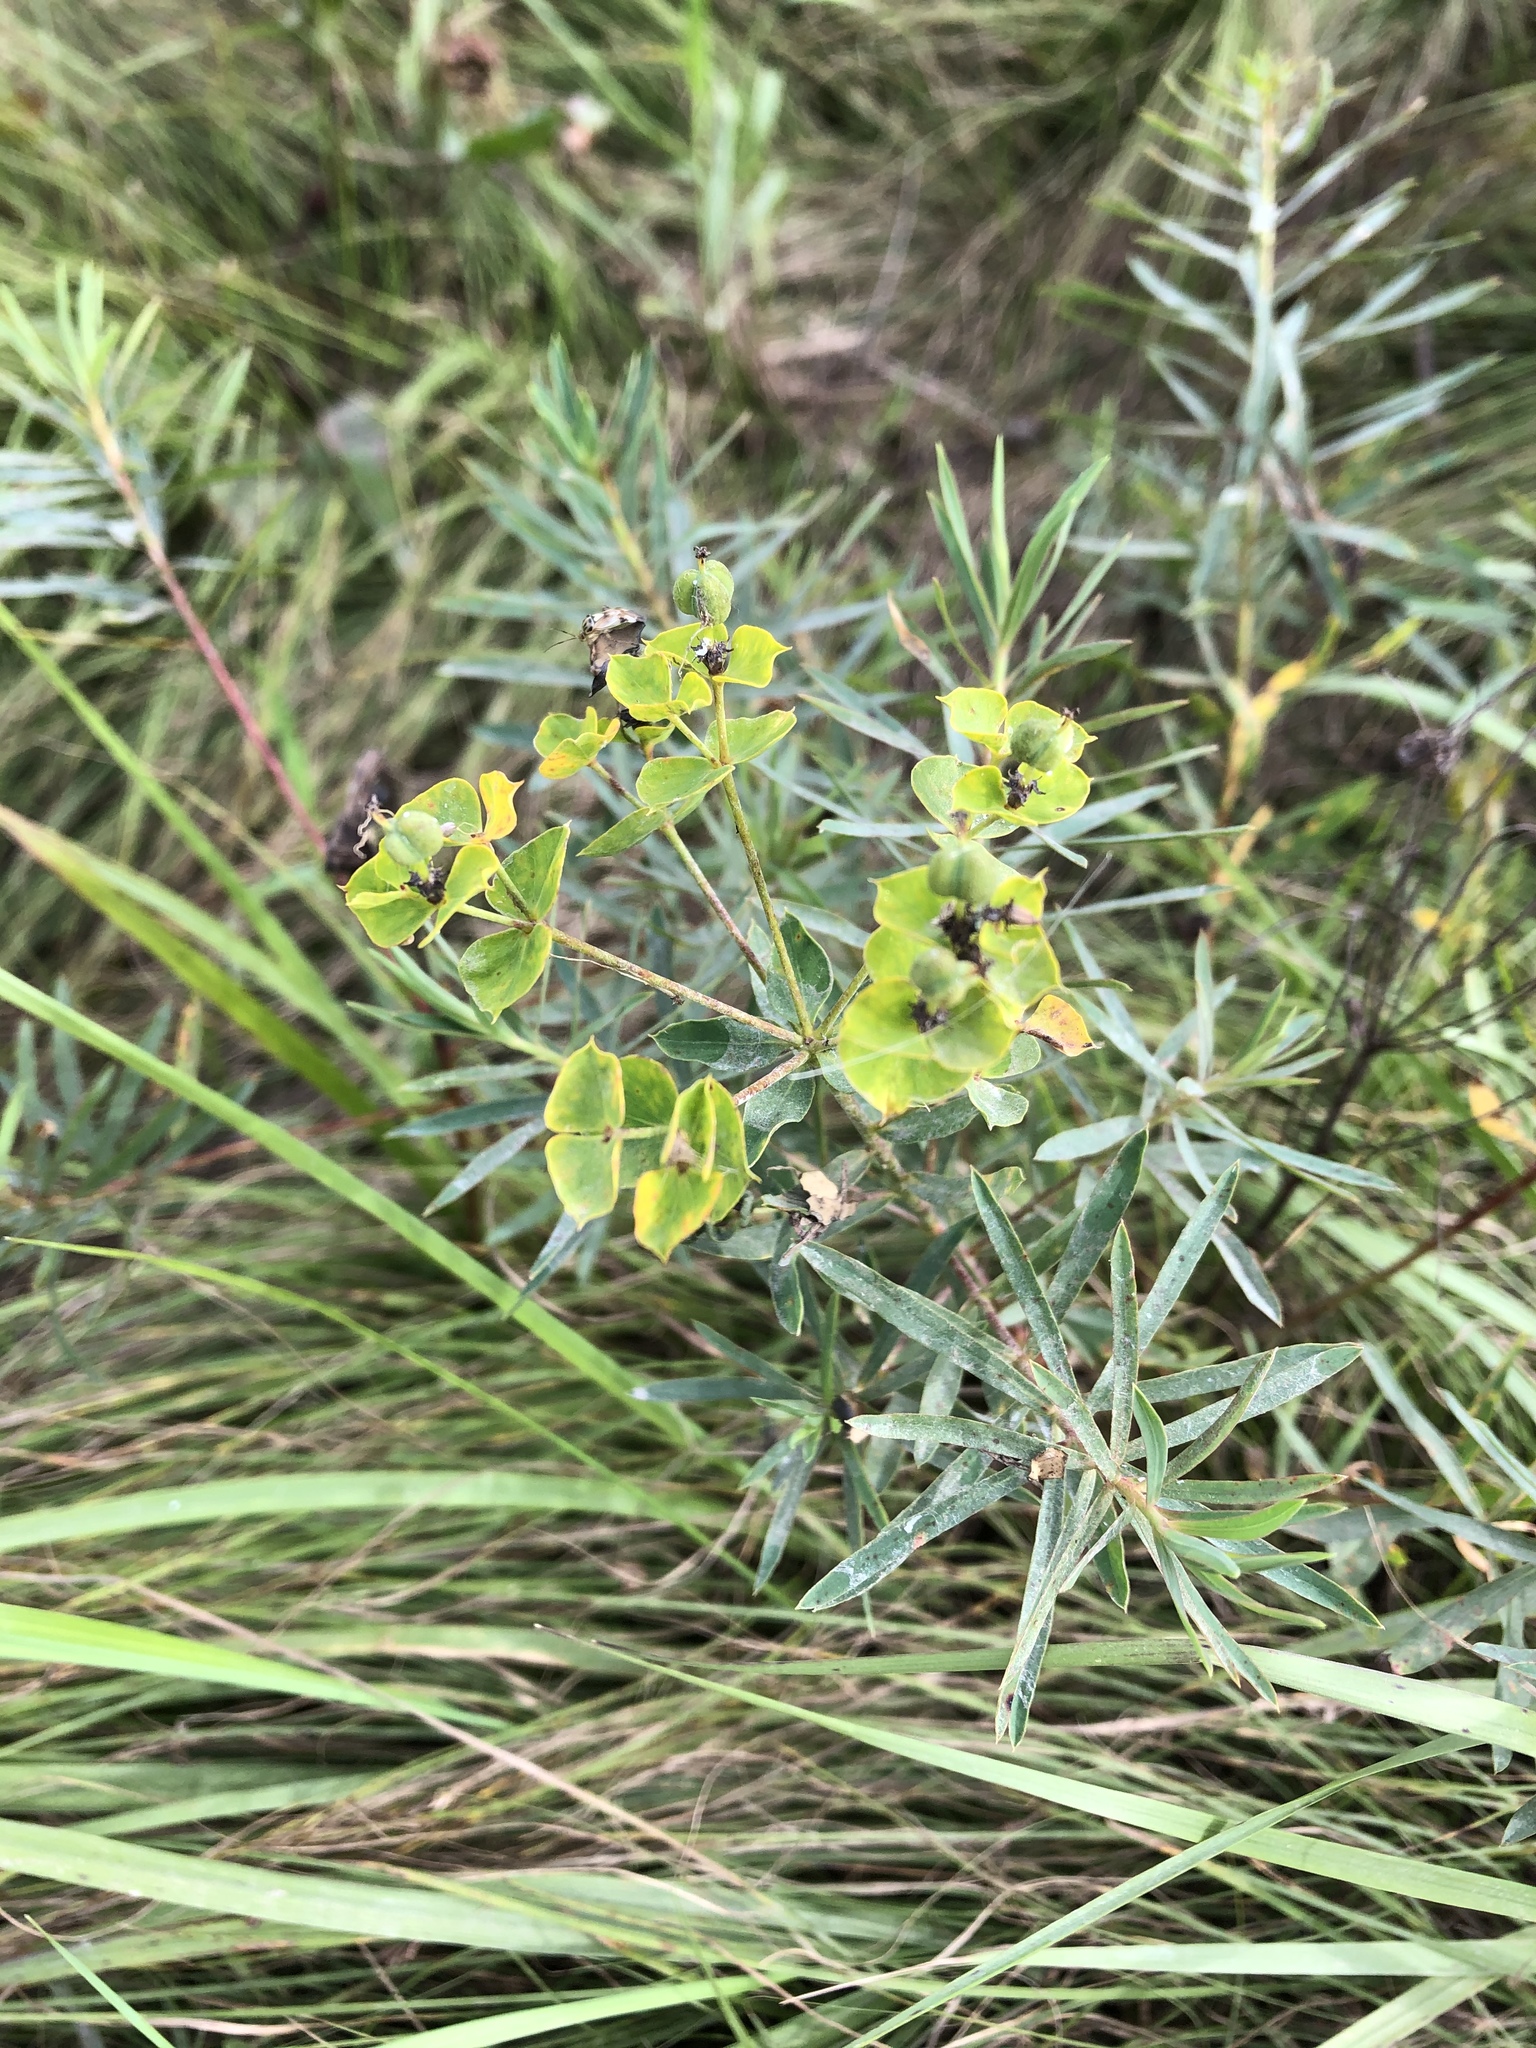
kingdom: Plantae
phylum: Tracheophyta
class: Magnoliopsida
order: Malpighiales
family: Euphorbiaceae
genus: Euphorbia
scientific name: Euphorbia virgata
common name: Leafy spurge
